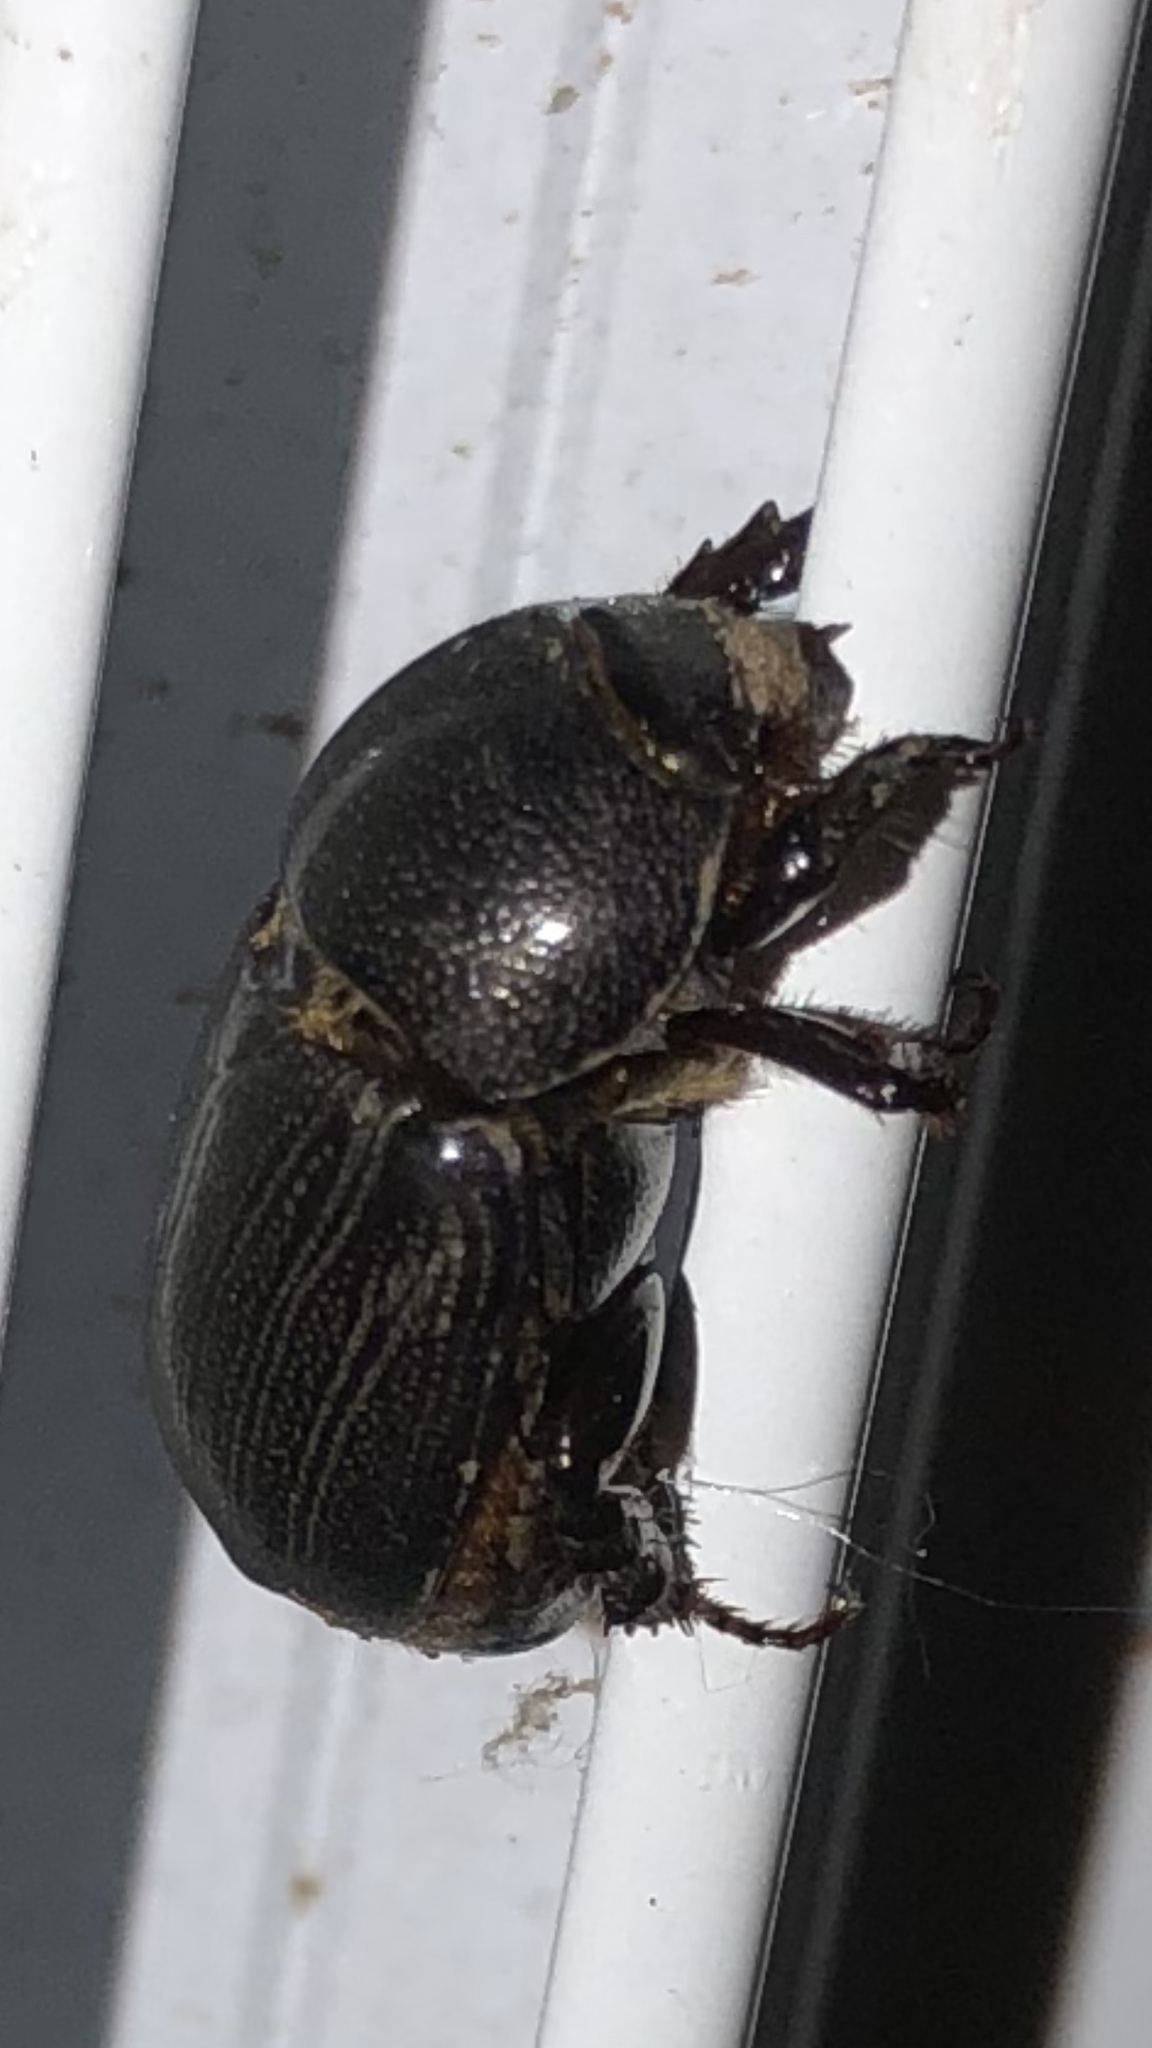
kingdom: Animalia
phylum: Arthropoda
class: Insecta
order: Coleoptera
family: Scarabaeidae
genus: Euetheola
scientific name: Euetheola humilis
